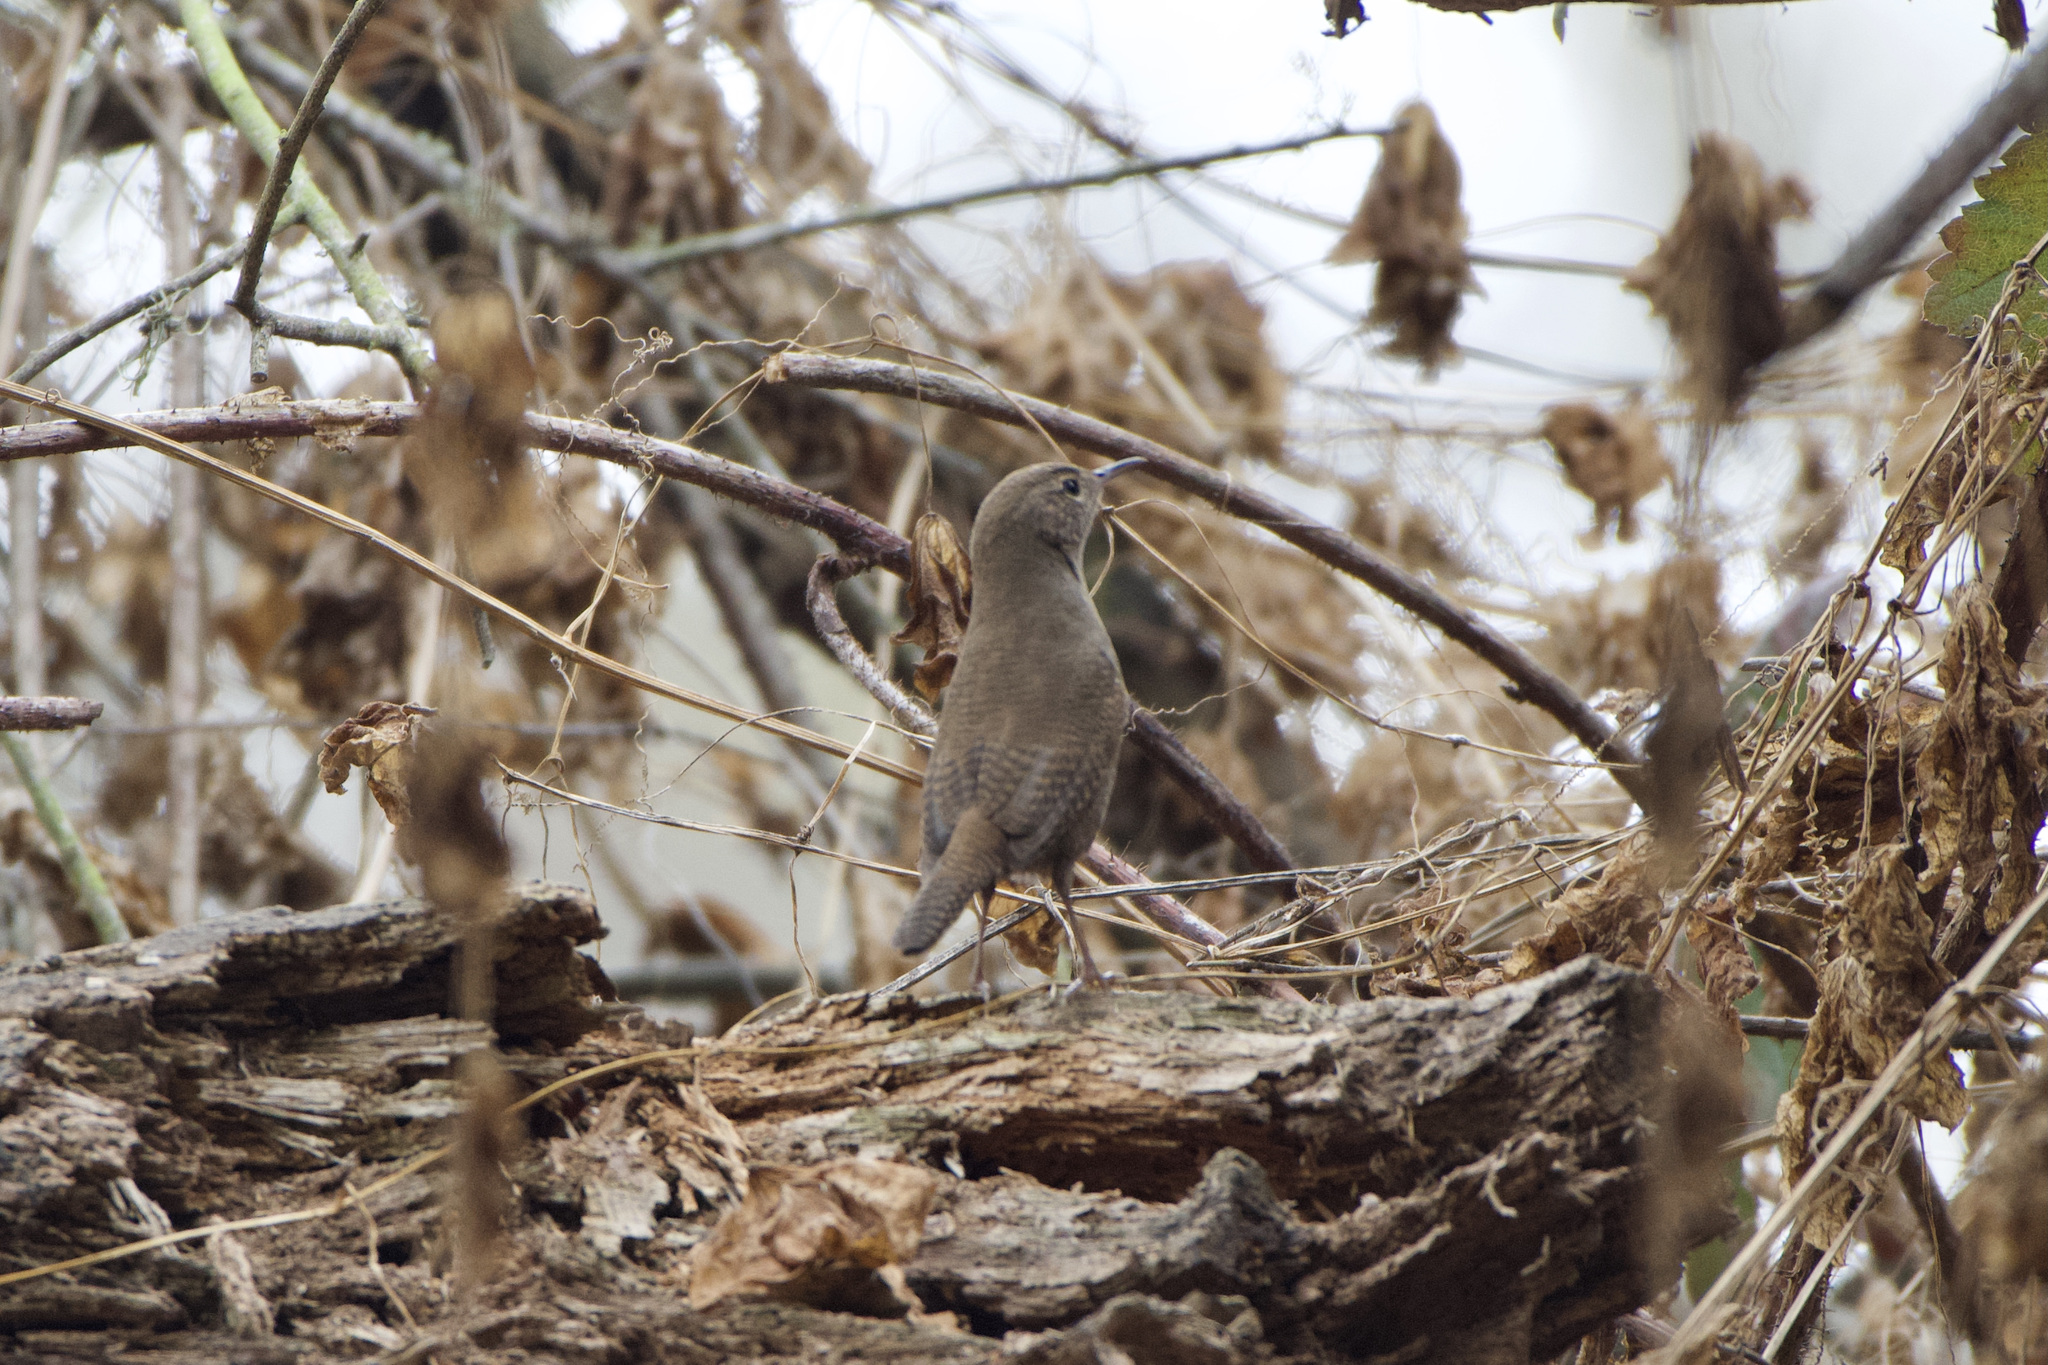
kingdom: Animalia
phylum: Chordata
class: Aves
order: Passeriformes
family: Troglodytidae
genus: Troglodytes
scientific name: Troglodytes aedon
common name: House wren
